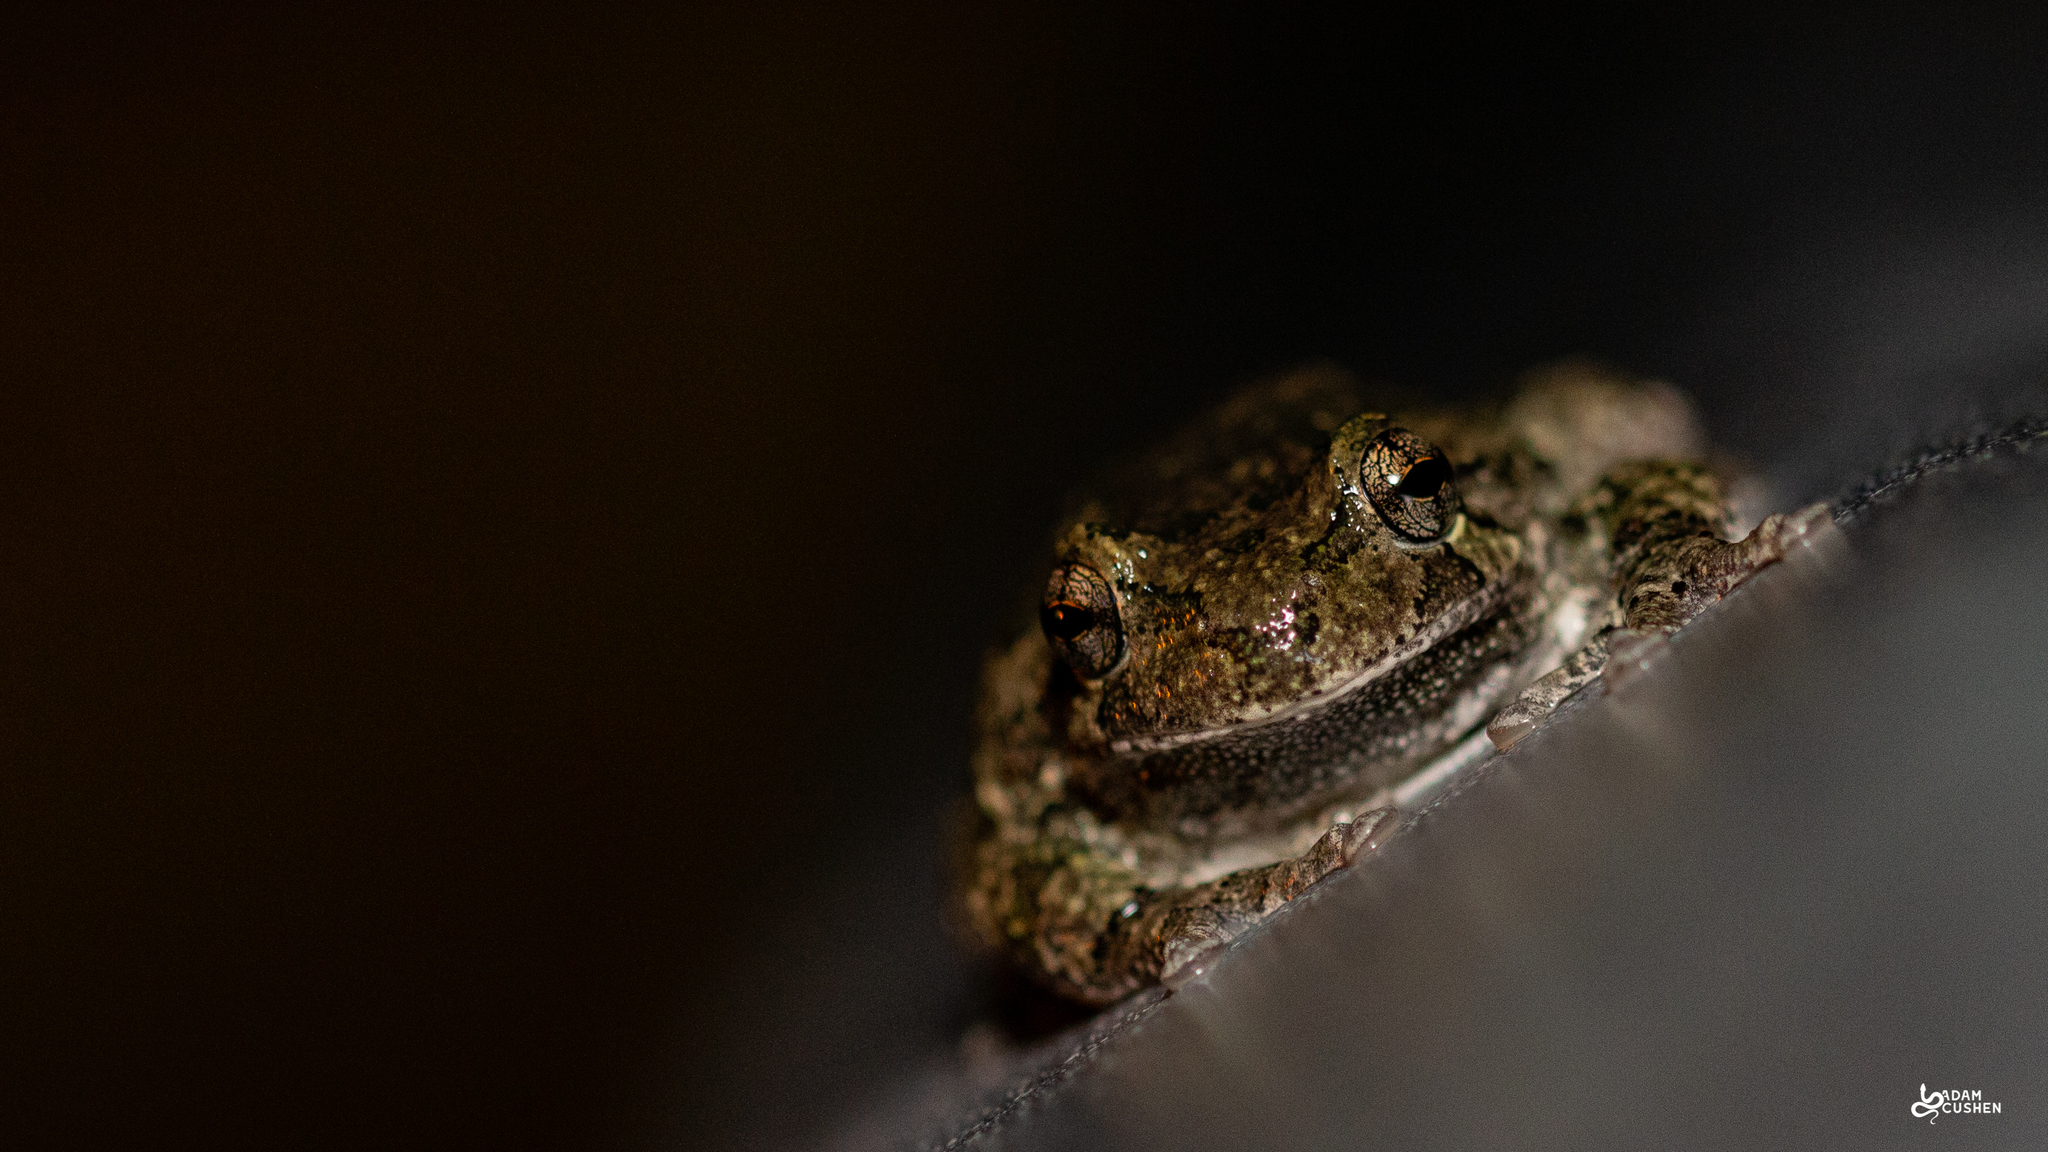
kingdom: Animalia
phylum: Chordata
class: Amphibia
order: Anura
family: Hylidae
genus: Dryophytes
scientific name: Dryophytes versicolor
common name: Gray treefrog
